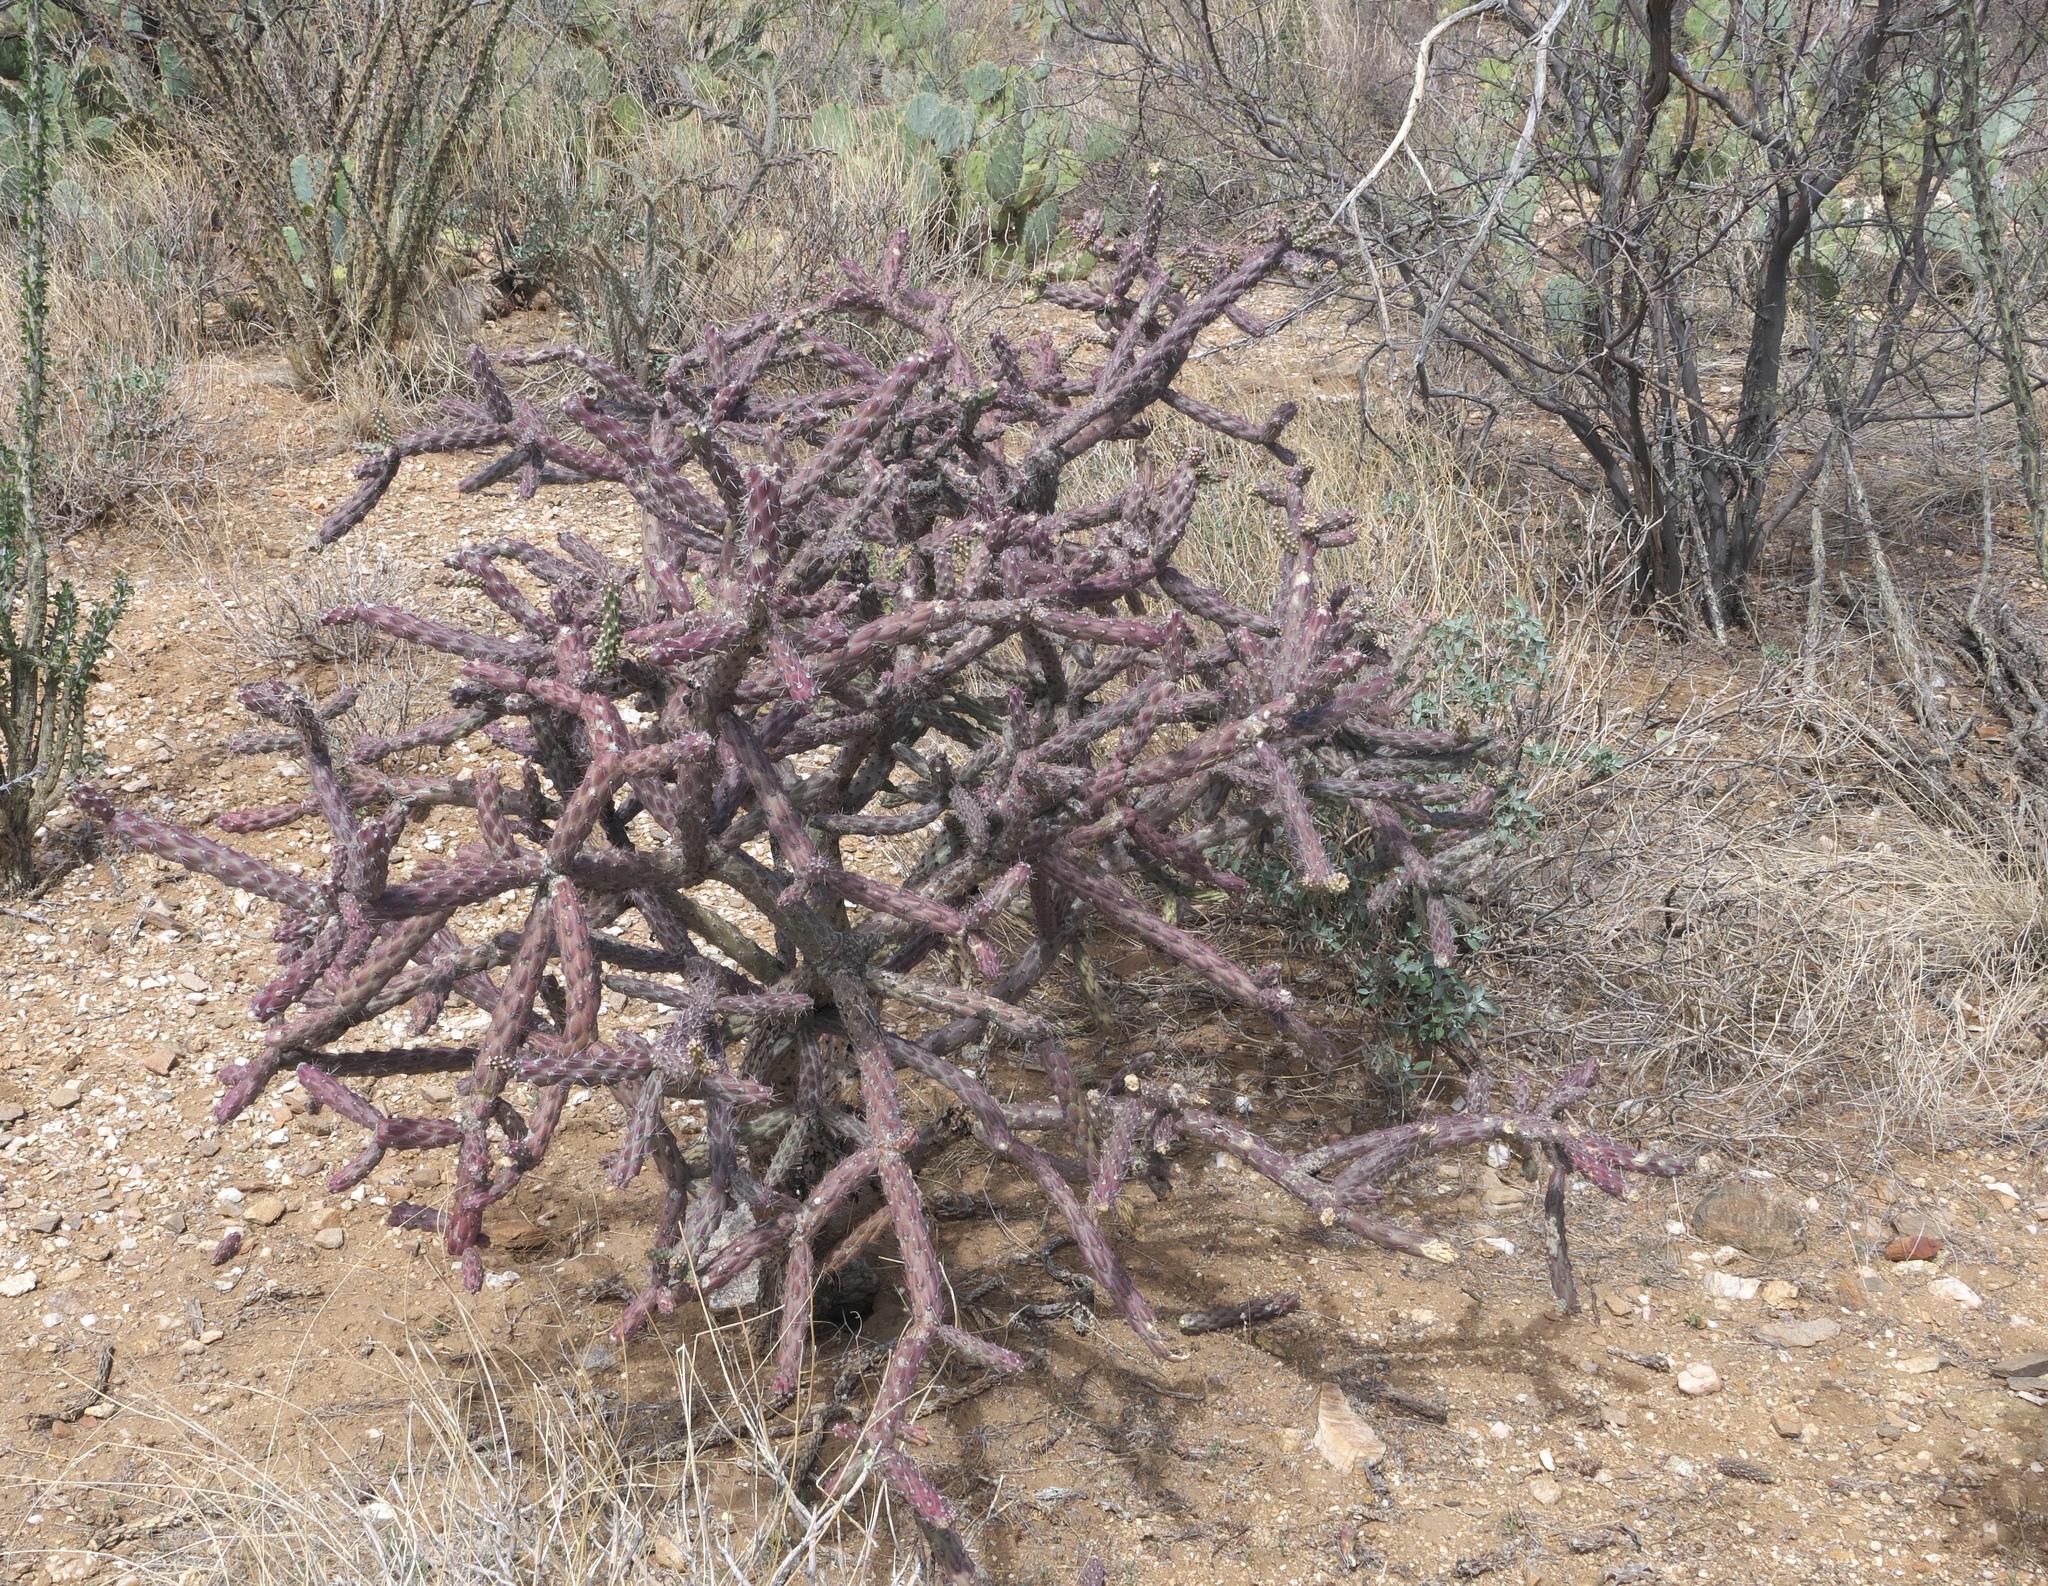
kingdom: Plantae
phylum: Tracheophyta
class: Magnoliopsida
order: Caryophyllales
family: Cactaceae
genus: Cylindropuntia
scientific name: Cylindropuntia thurberi
